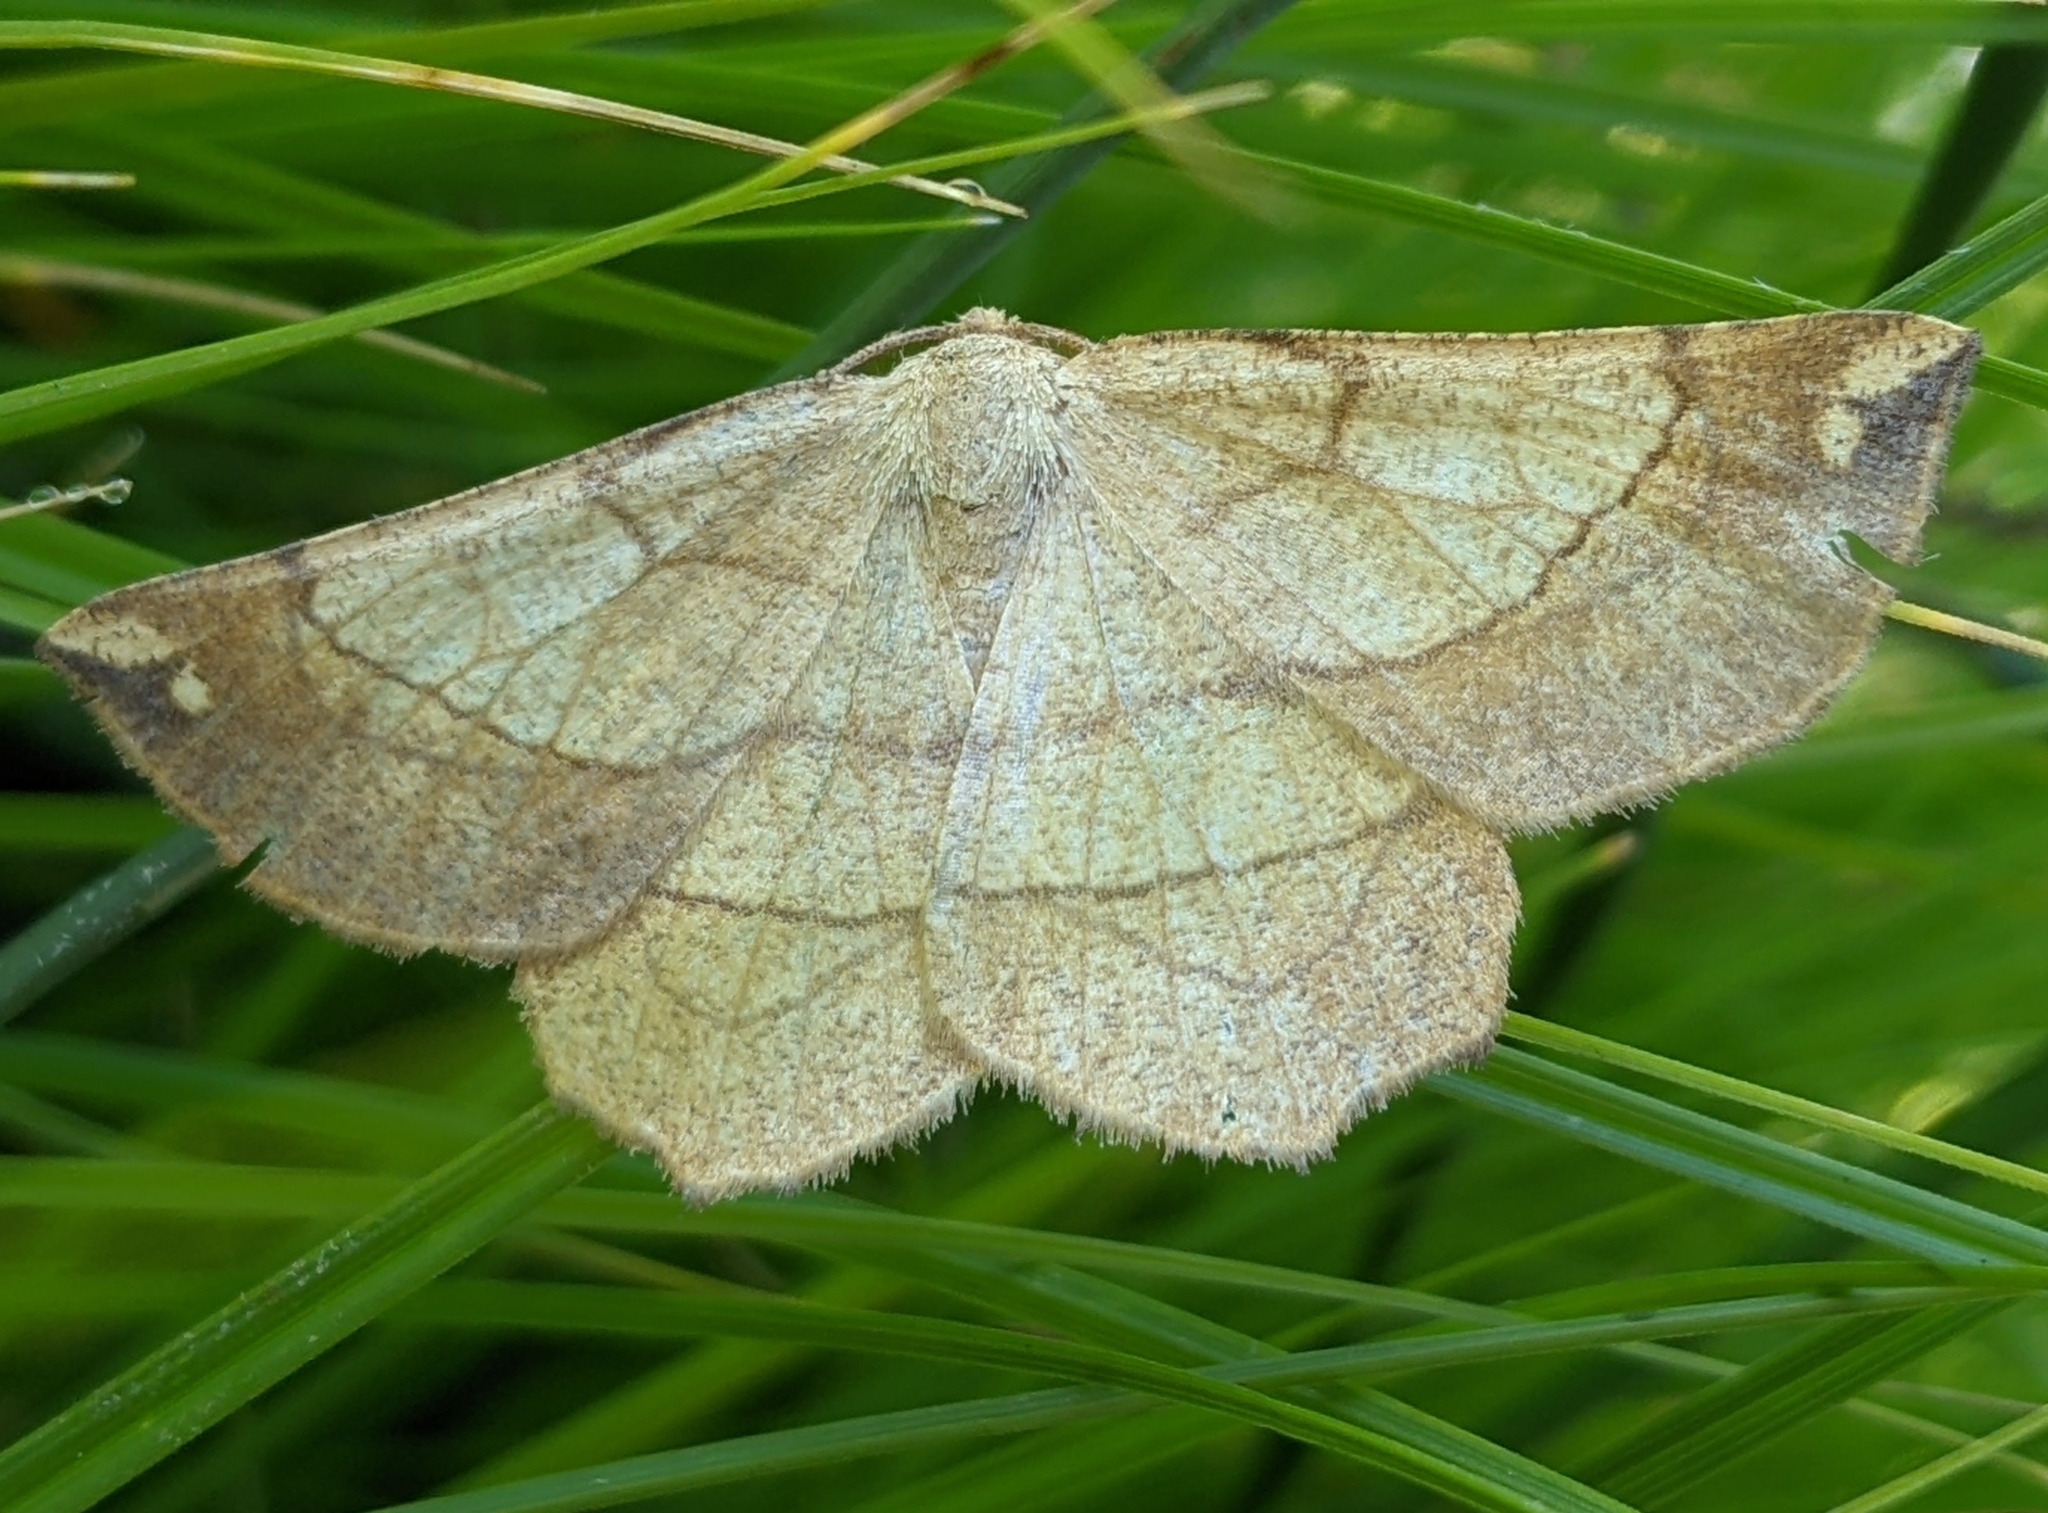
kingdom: Animalia
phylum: Arthropoda
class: Insecta
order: Lepidoptera
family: Geometridae
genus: Euchlaena
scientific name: Euchlaena madusaria
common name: Scrub euchlaena moth
